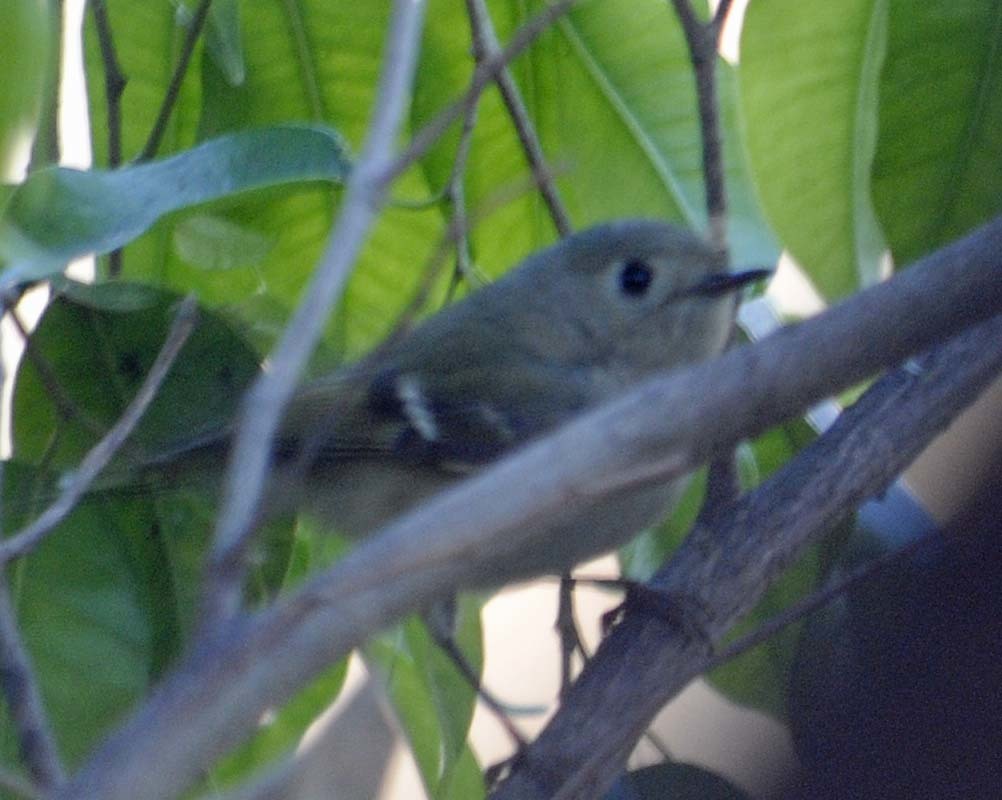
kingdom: Animalia
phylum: Chordata
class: Aves
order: Passeriformes
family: Regulidae
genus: Regulus
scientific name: Regulus calendula
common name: Ruby-crowned kinglet
